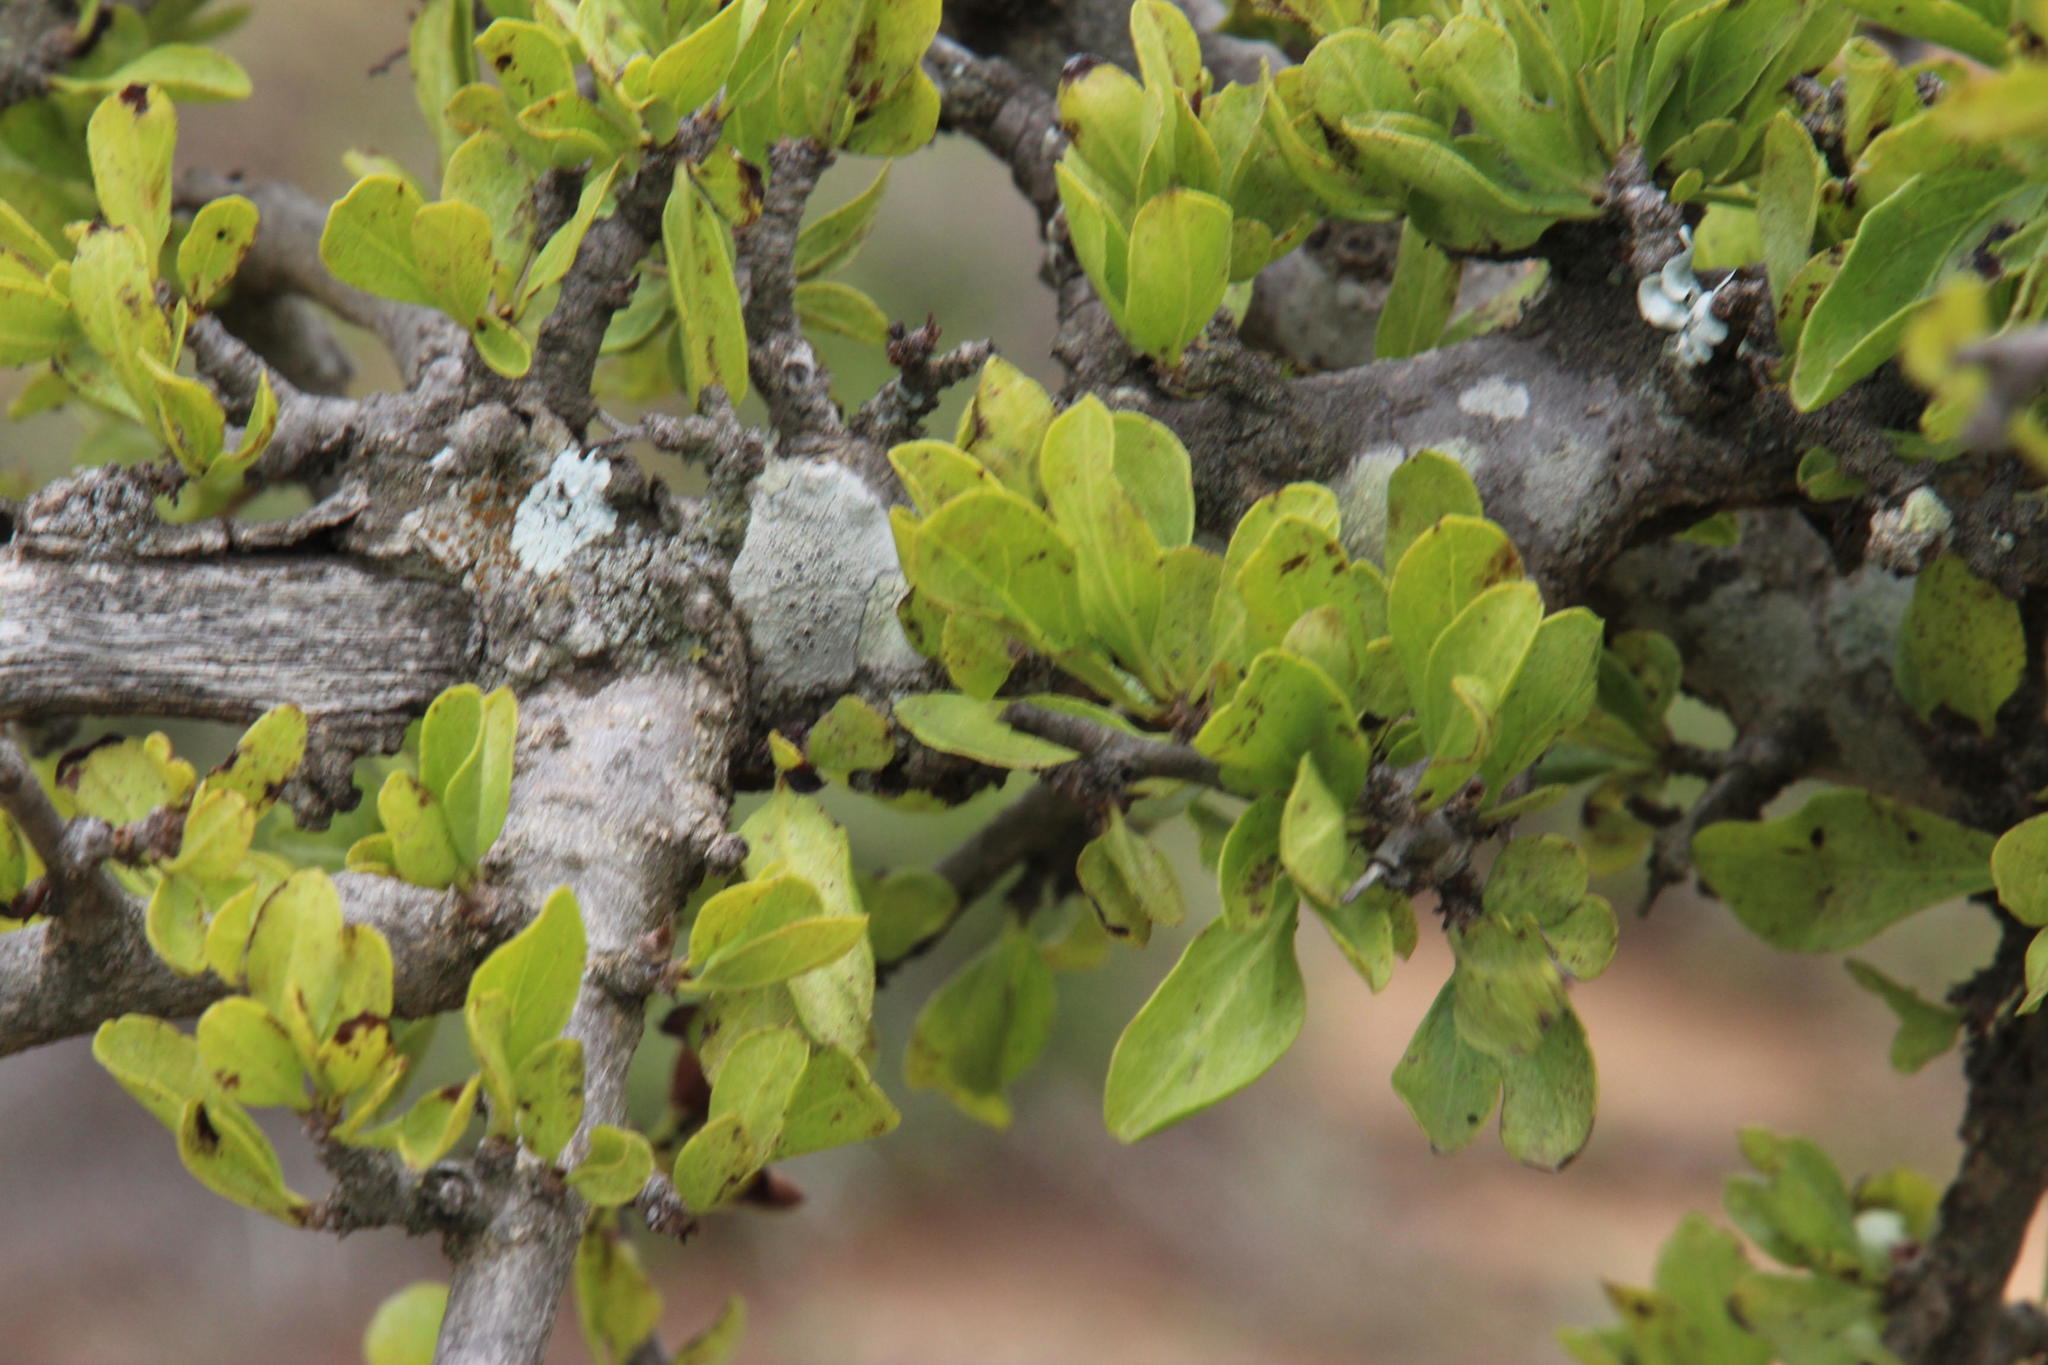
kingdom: Plantae
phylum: Tracheophyta
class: Magnoliopsida
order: Boraginales
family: Ehretiaceae
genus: Ehretia
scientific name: Ehretia rigida
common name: Cape lilac
